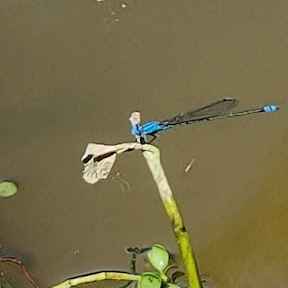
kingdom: Animalia
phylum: Arthropoda
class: Insecta
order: Odonata
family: Coenagrionidae
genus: Pseudagrion
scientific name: Pseudagrion microcephalum
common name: Blue riverdamsel
